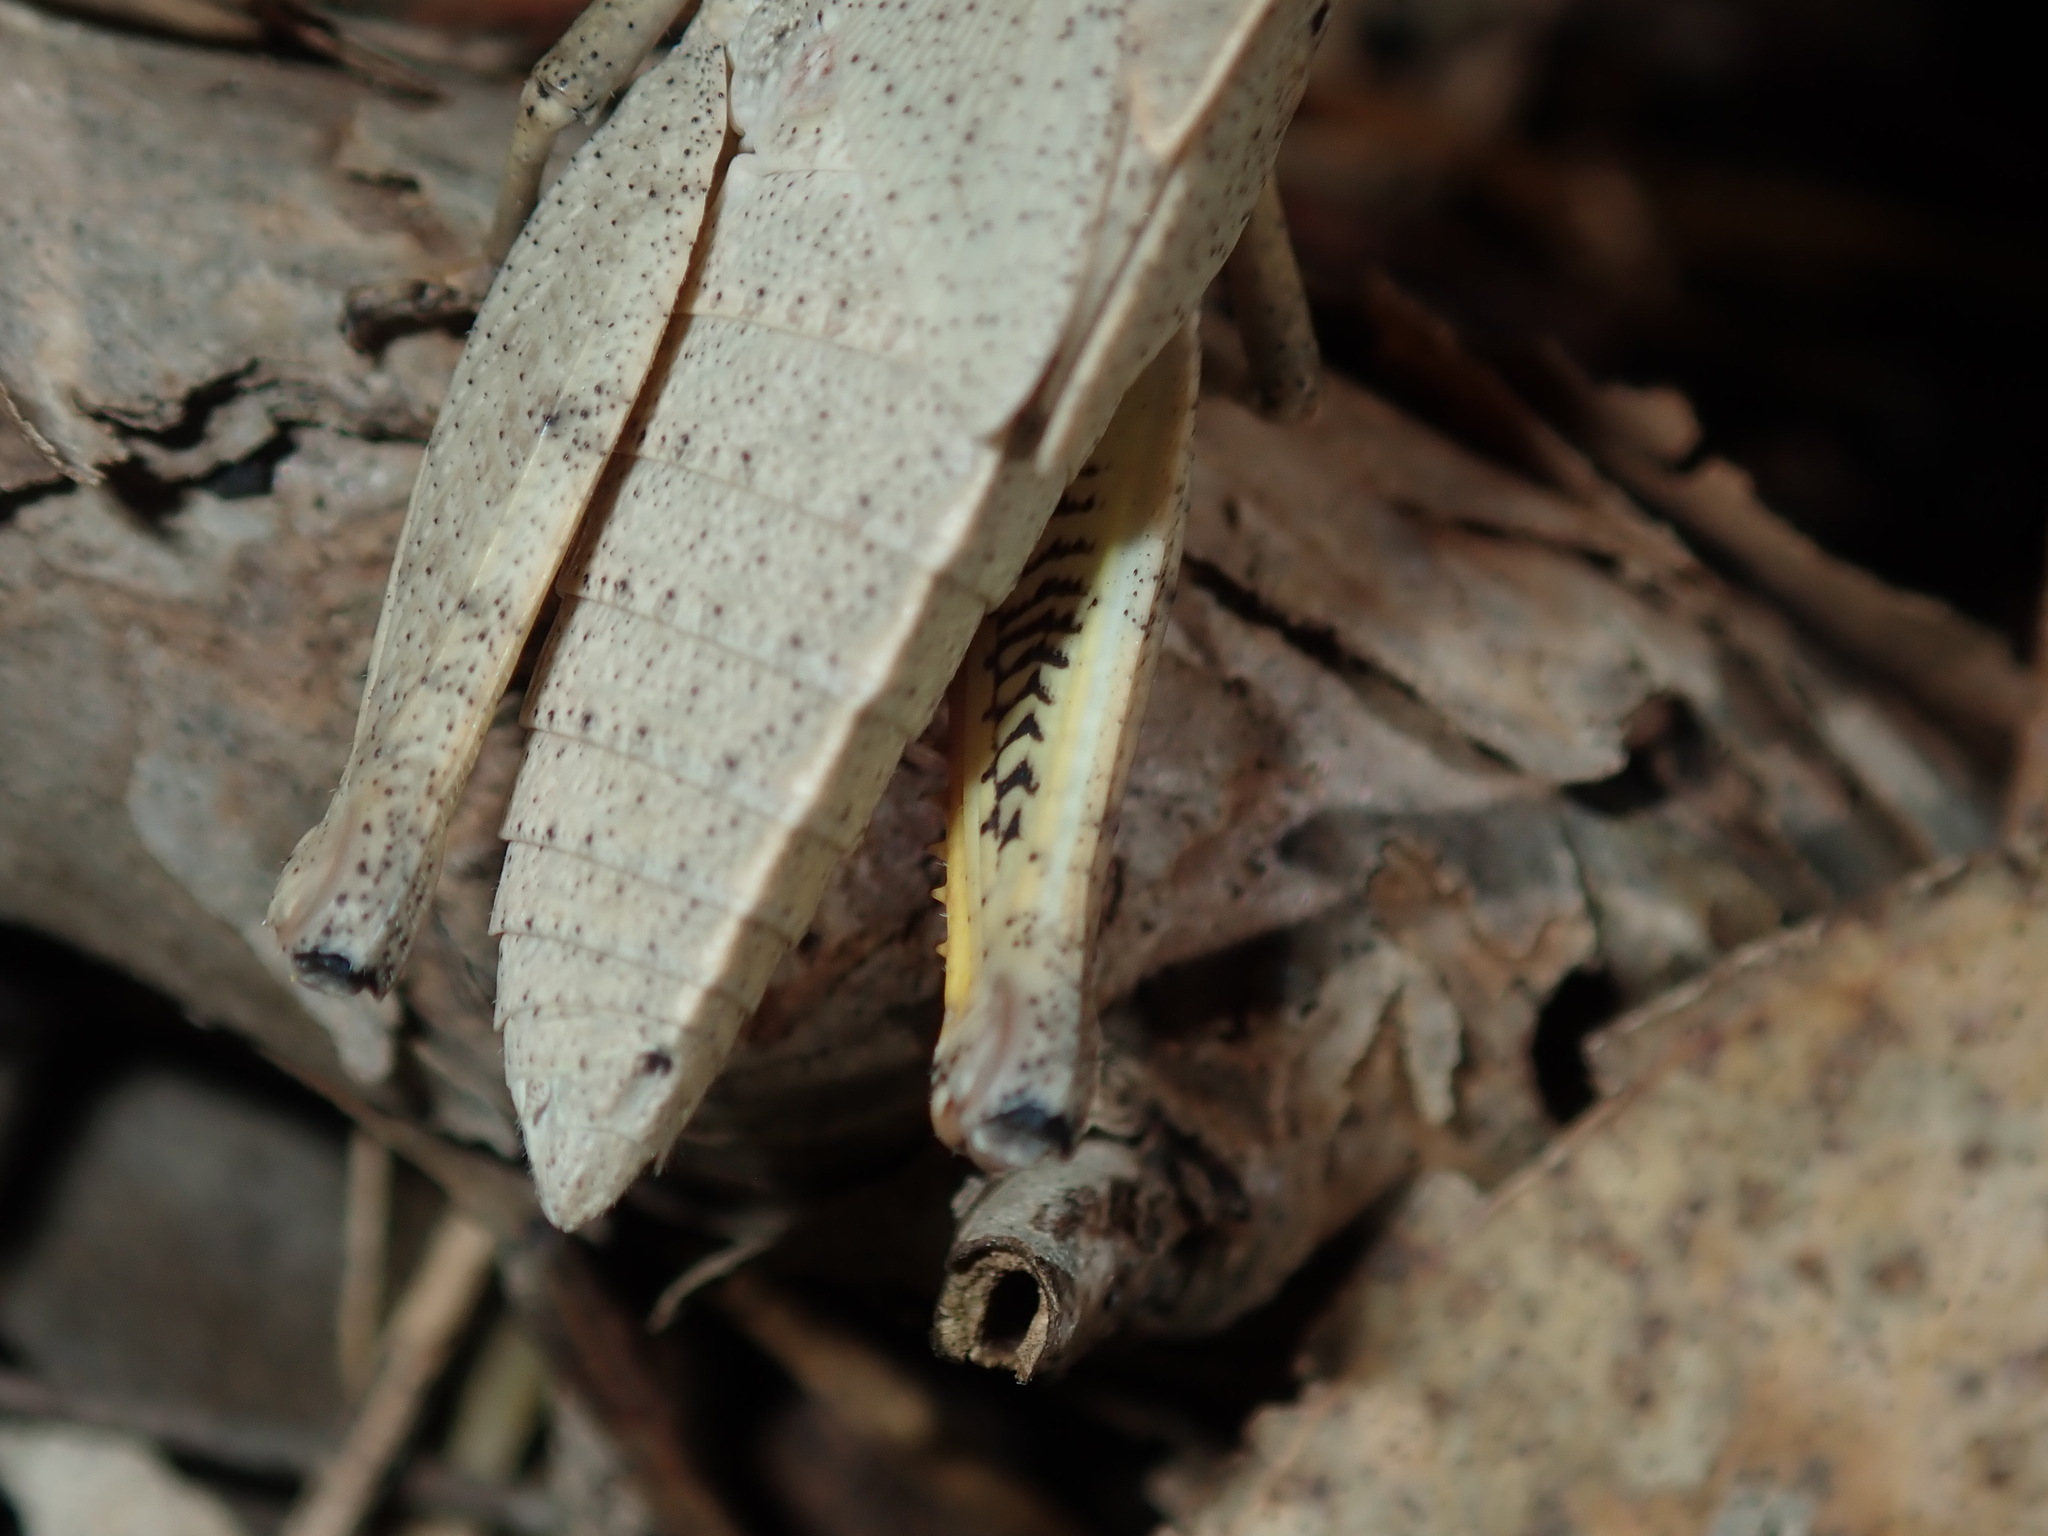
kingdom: Animalia
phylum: Arthropoda
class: Insecta
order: Orthoptera
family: Acrididae
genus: Goniaea
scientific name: Goniaea australasiae
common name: Gumleaf grasshopper
